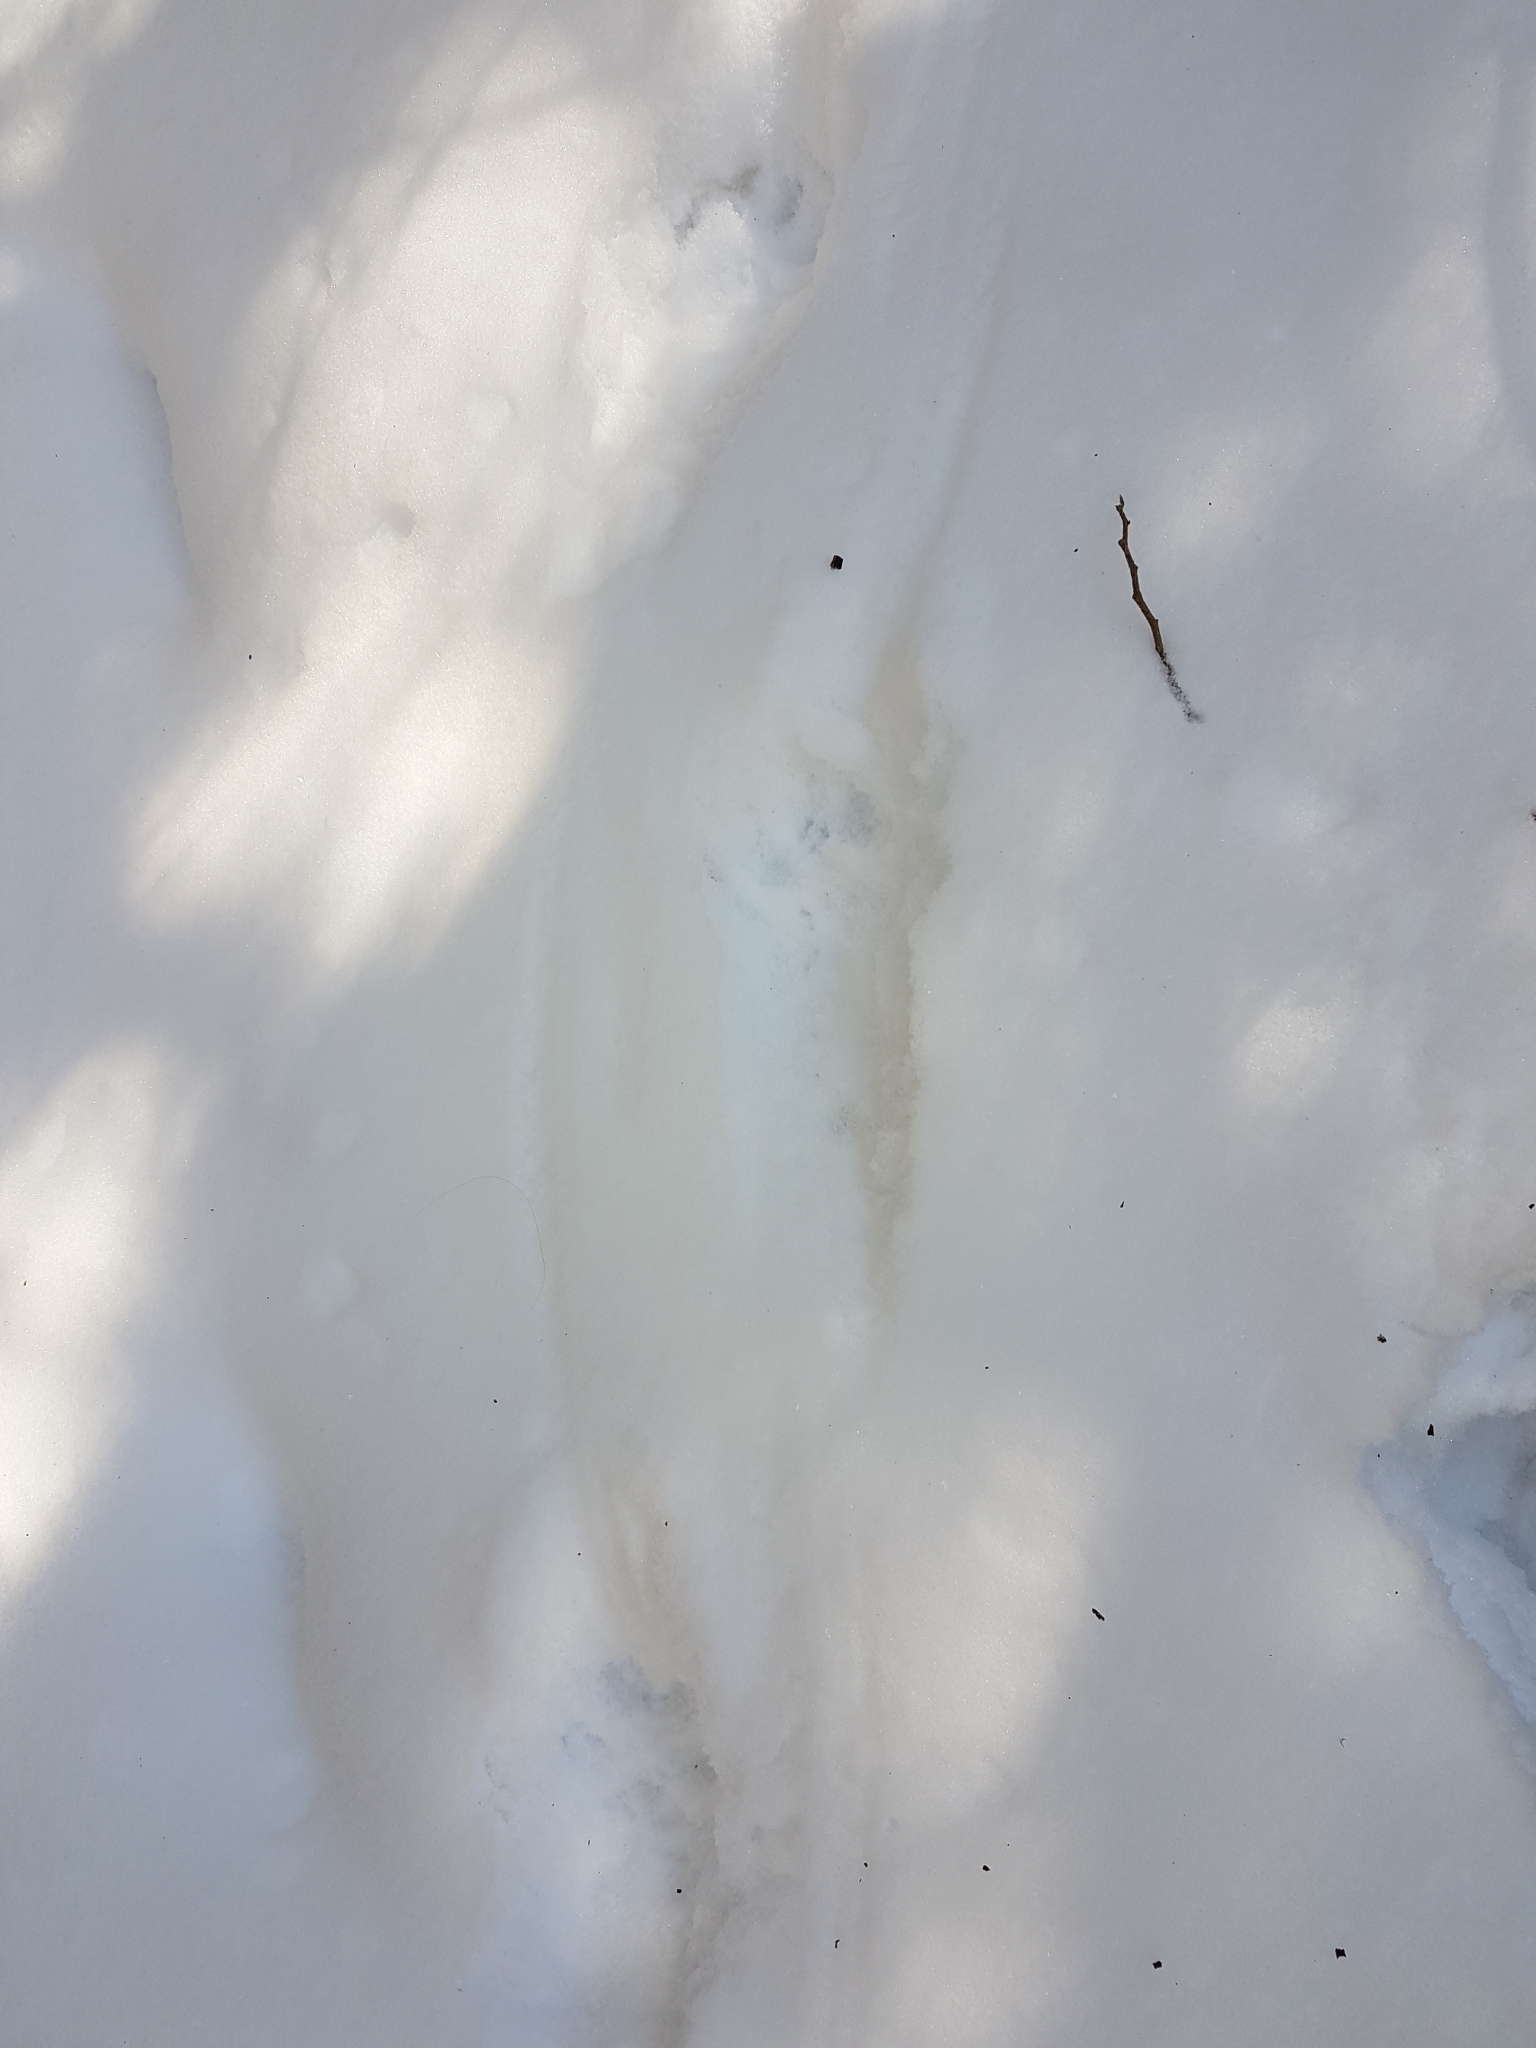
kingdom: Animalia
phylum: Chordata
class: Mammalia
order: Carnivora
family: Procyonidae
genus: Procyon
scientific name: Procyon lotor
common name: Raccoon
